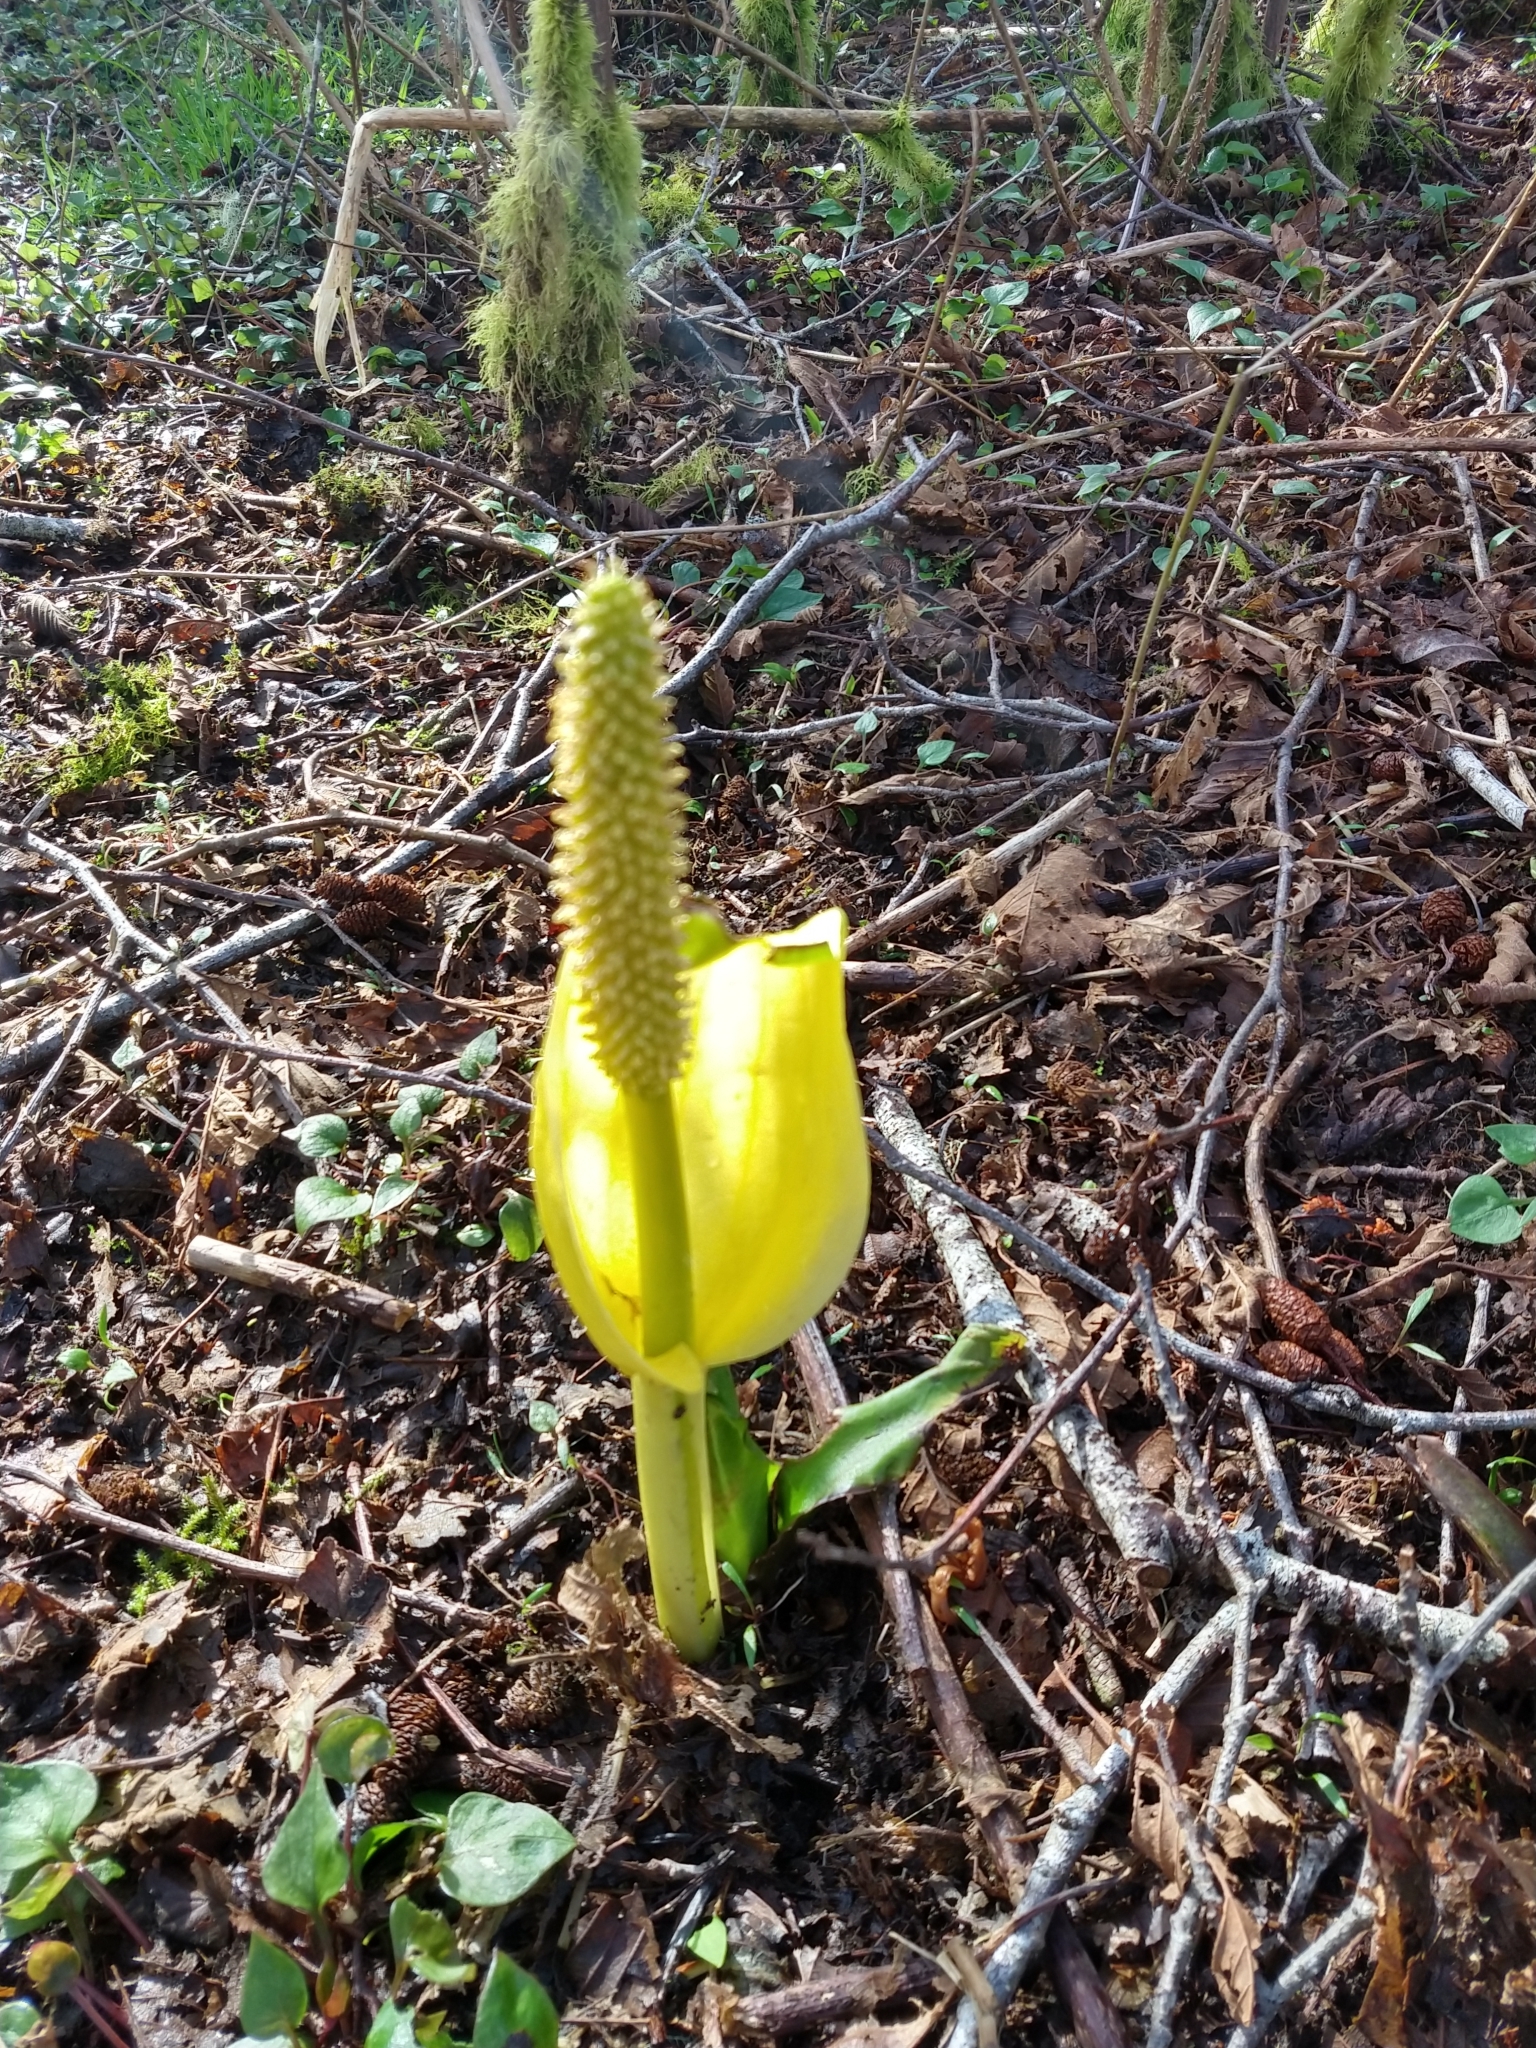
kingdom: Plantae
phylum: Tracheophyta
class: Liliopsida
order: Alismatales
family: Araceae
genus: Lysichiton
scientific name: Lysichiton americanus
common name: American skunk cabbage
